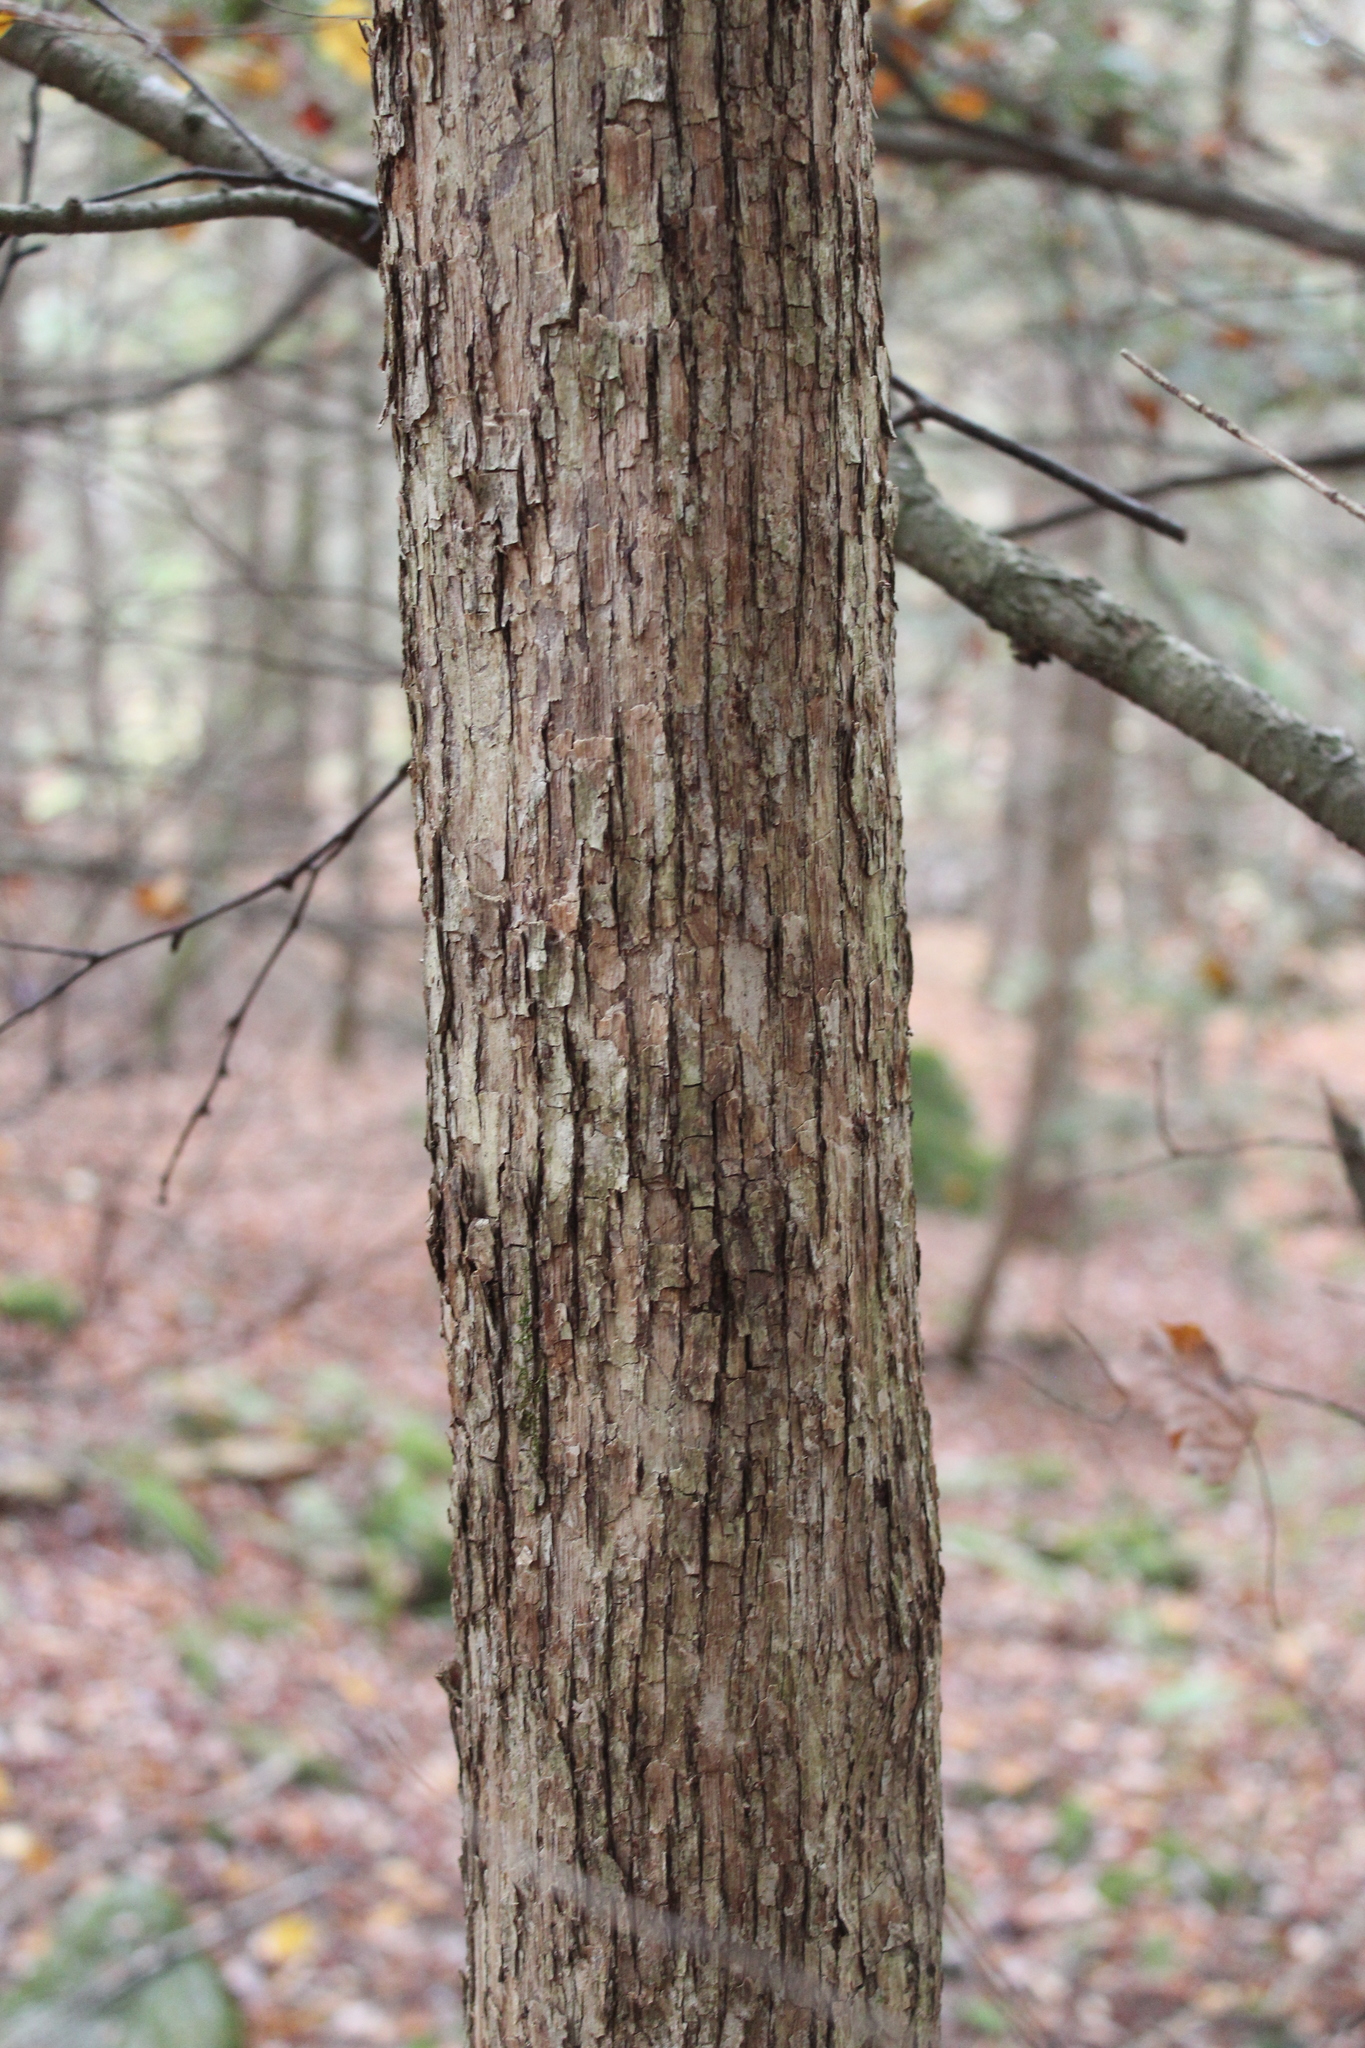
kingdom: Plantae
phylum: Tracheophyta
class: Magnoliopsida
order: Fagales
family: Betulaceae
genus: Ostrya
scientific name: Ostrya virginiana
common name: Ironwood
